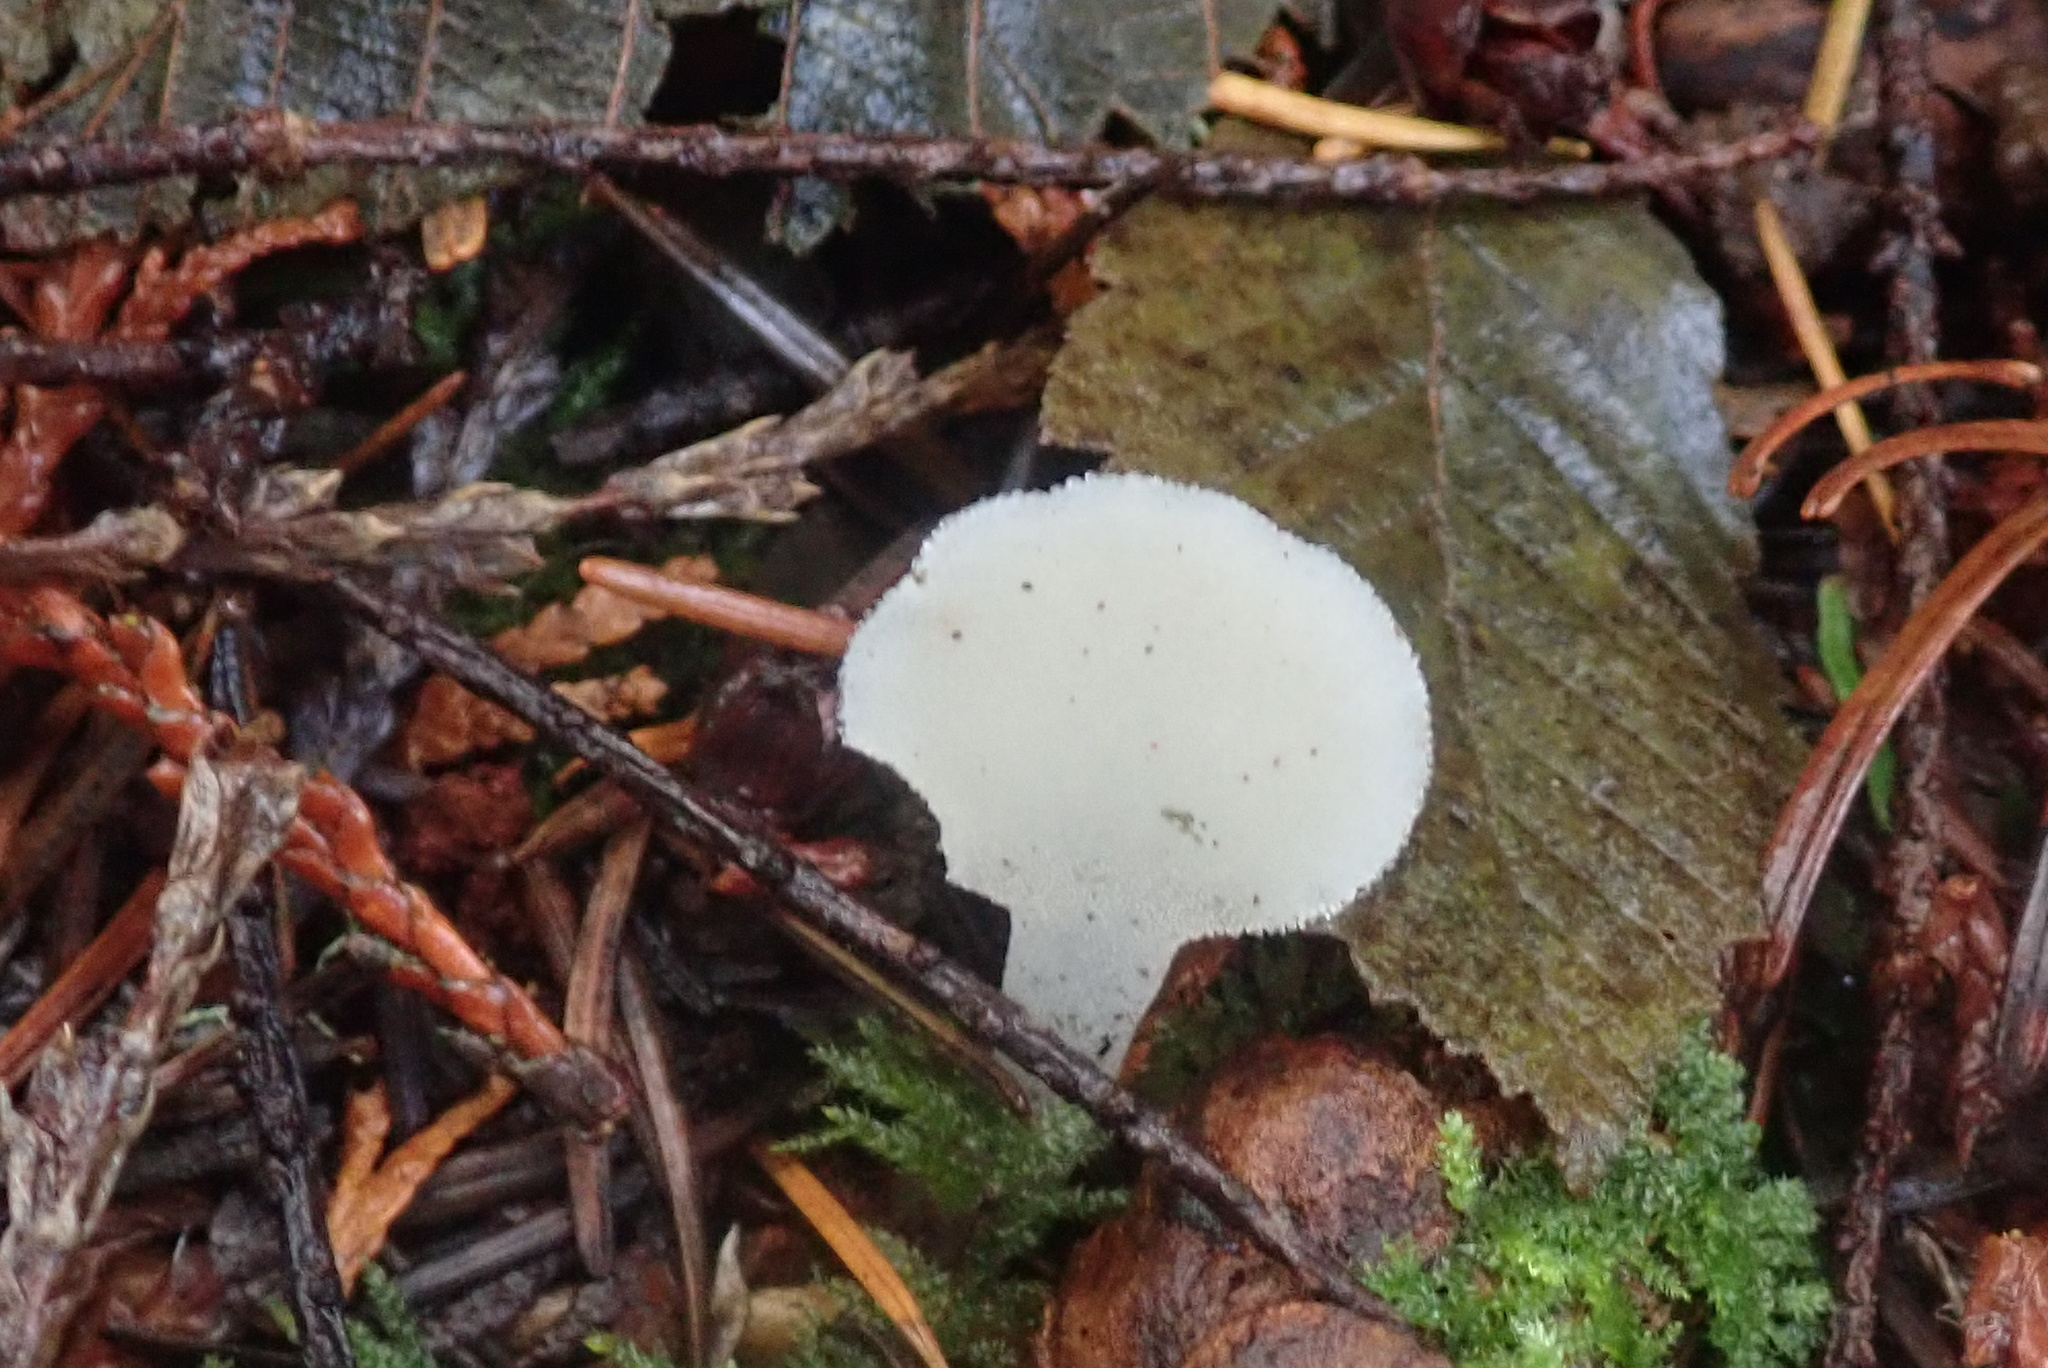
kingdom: Fungi
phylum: Basidiomycota
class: Agaricomycetes
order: Auriculariales
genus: Pseudohydnum
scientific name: Pseudohydnum gelatinosum
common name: Jelly tongue
